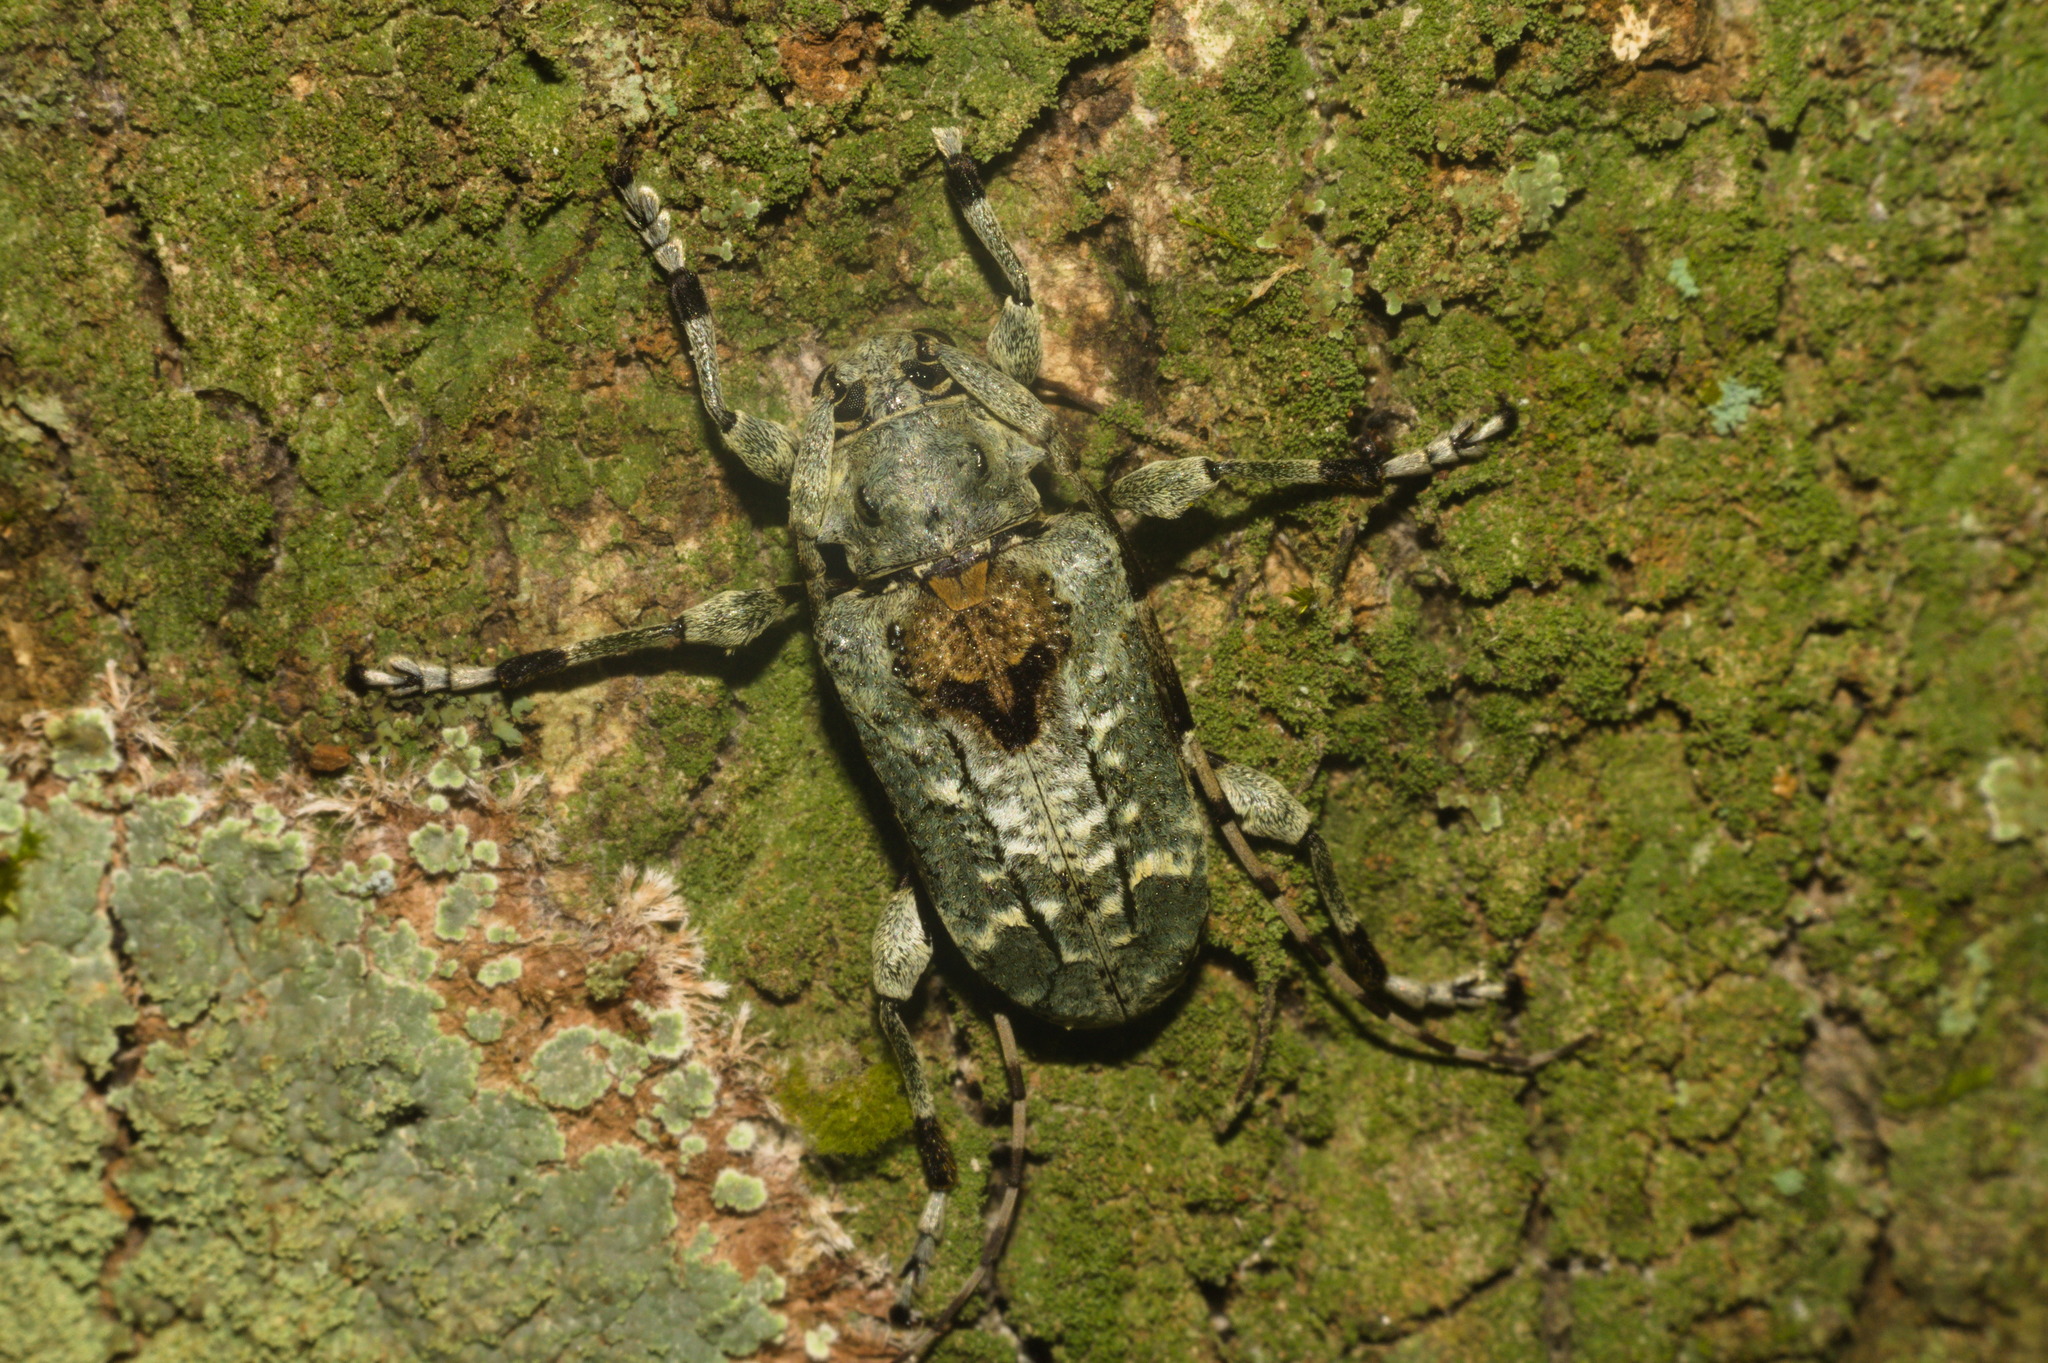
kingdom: Animalia
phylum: Arthropoda
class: Insecta
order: Coleoptera
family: Cerambycidae
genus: Ateralphus
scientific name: Ateralphus dejeani
